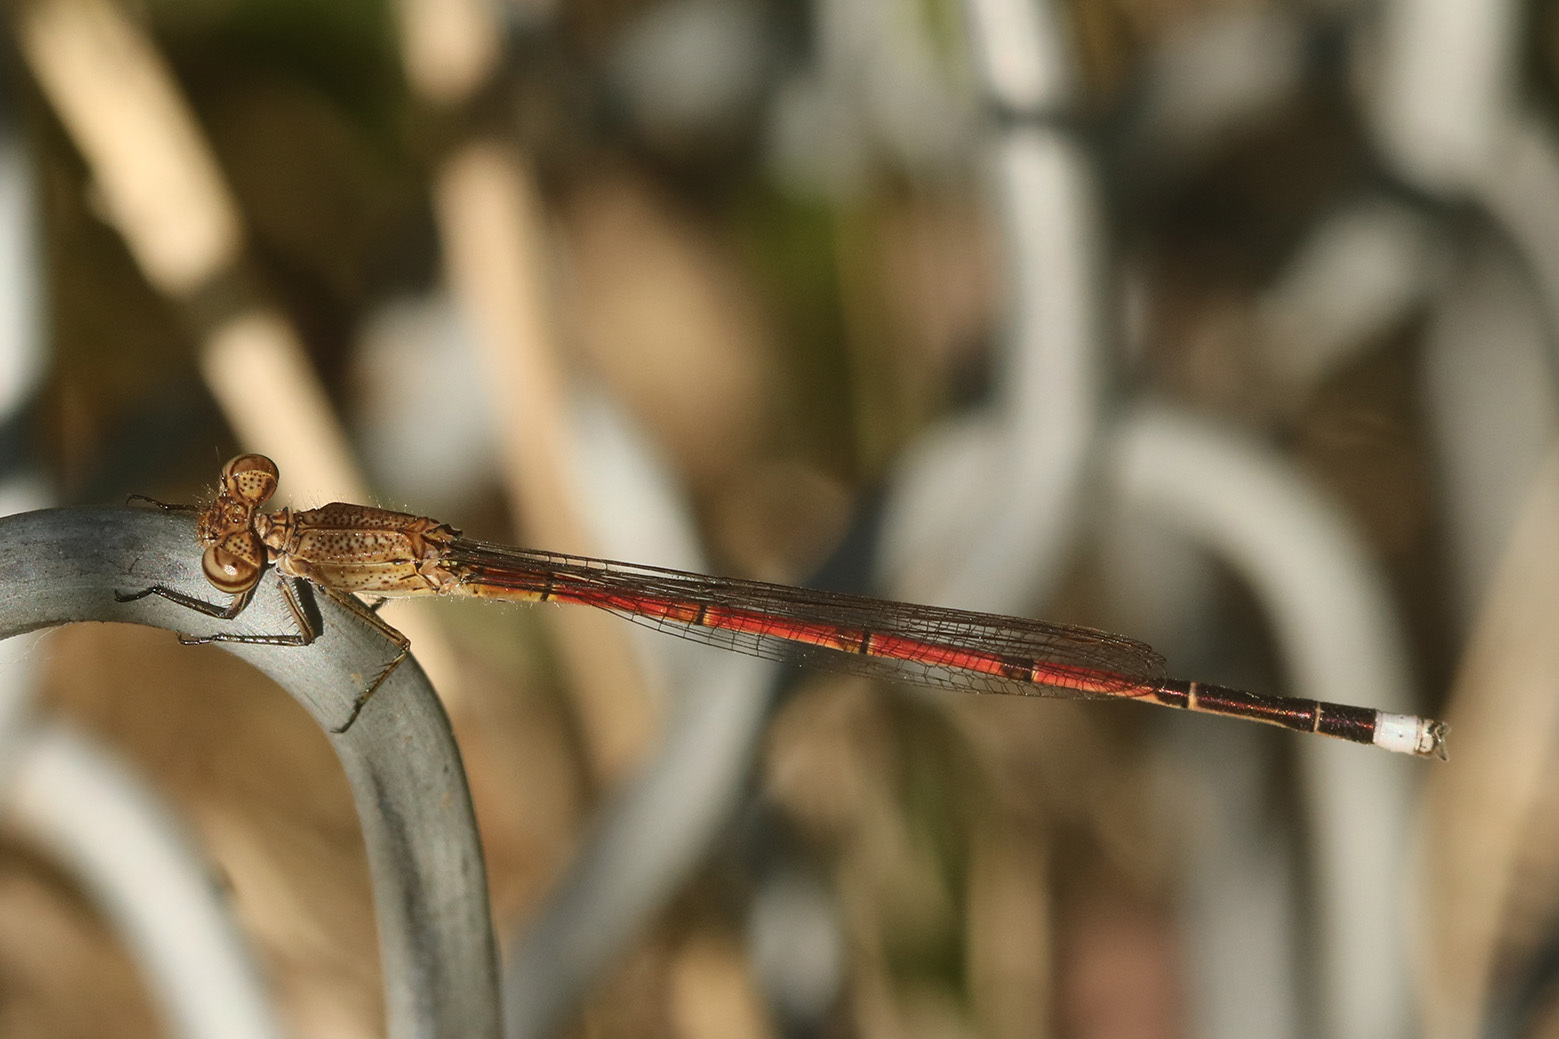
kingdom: Animalia
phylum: Arthropoda
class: Insecta
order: Odonata
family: Coenagrionidae
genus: Oxyagrion
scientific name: Oxyagrion terminale
